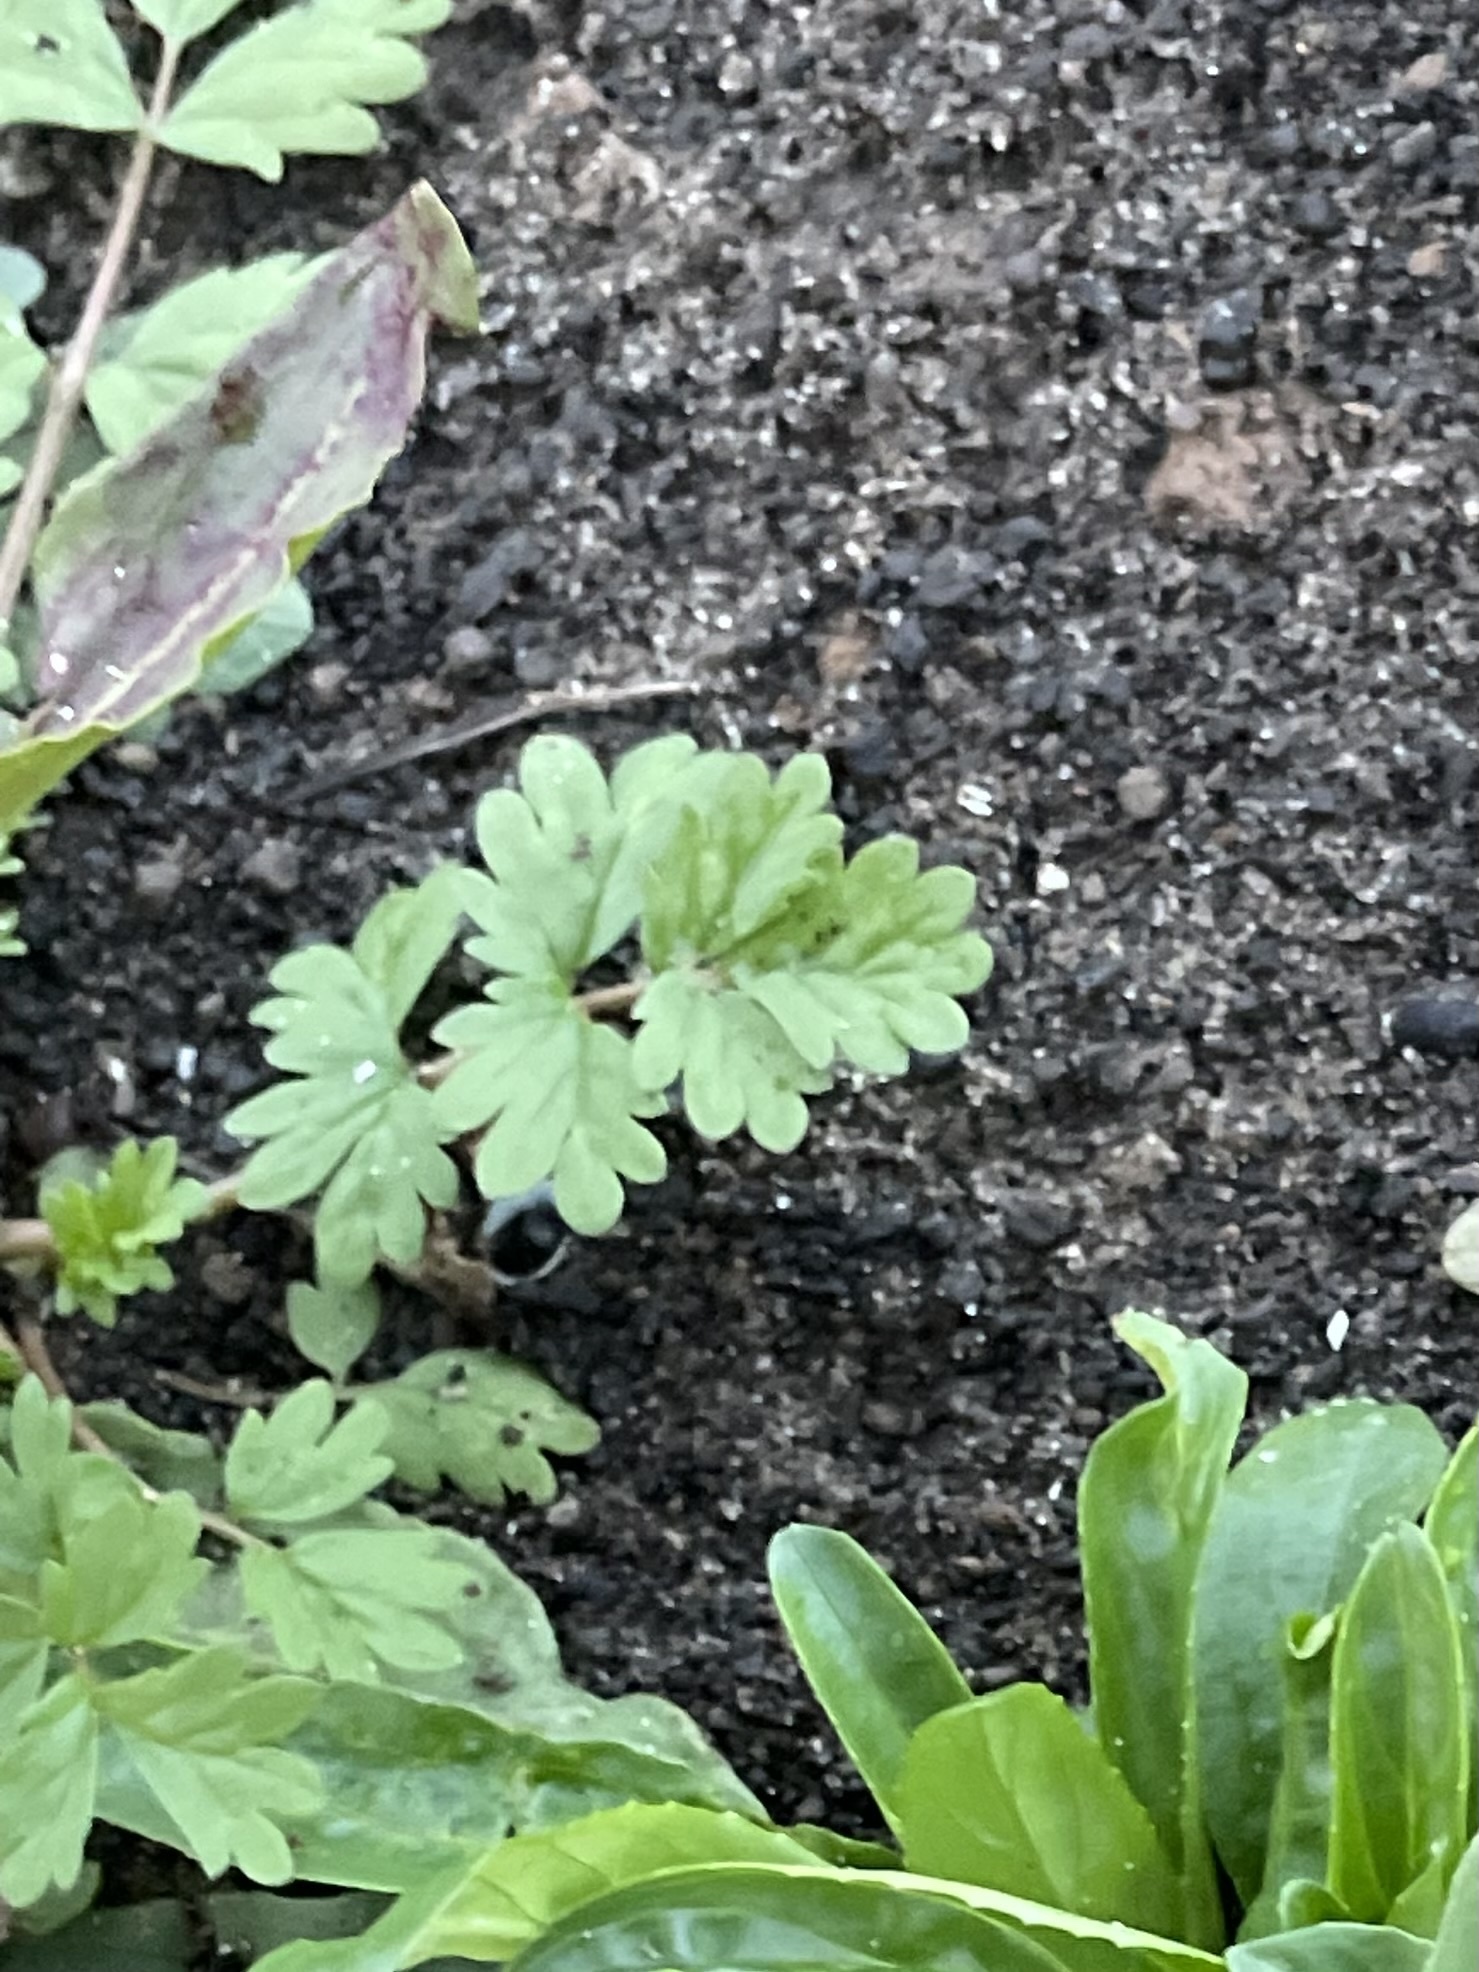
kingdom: Plantae
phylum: Tracheophyta
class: Magnoliopsida
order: Rosales
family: Rosaceae
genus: Potentilla
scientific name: Potentilla supina
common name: Prostrate cinquefoil
